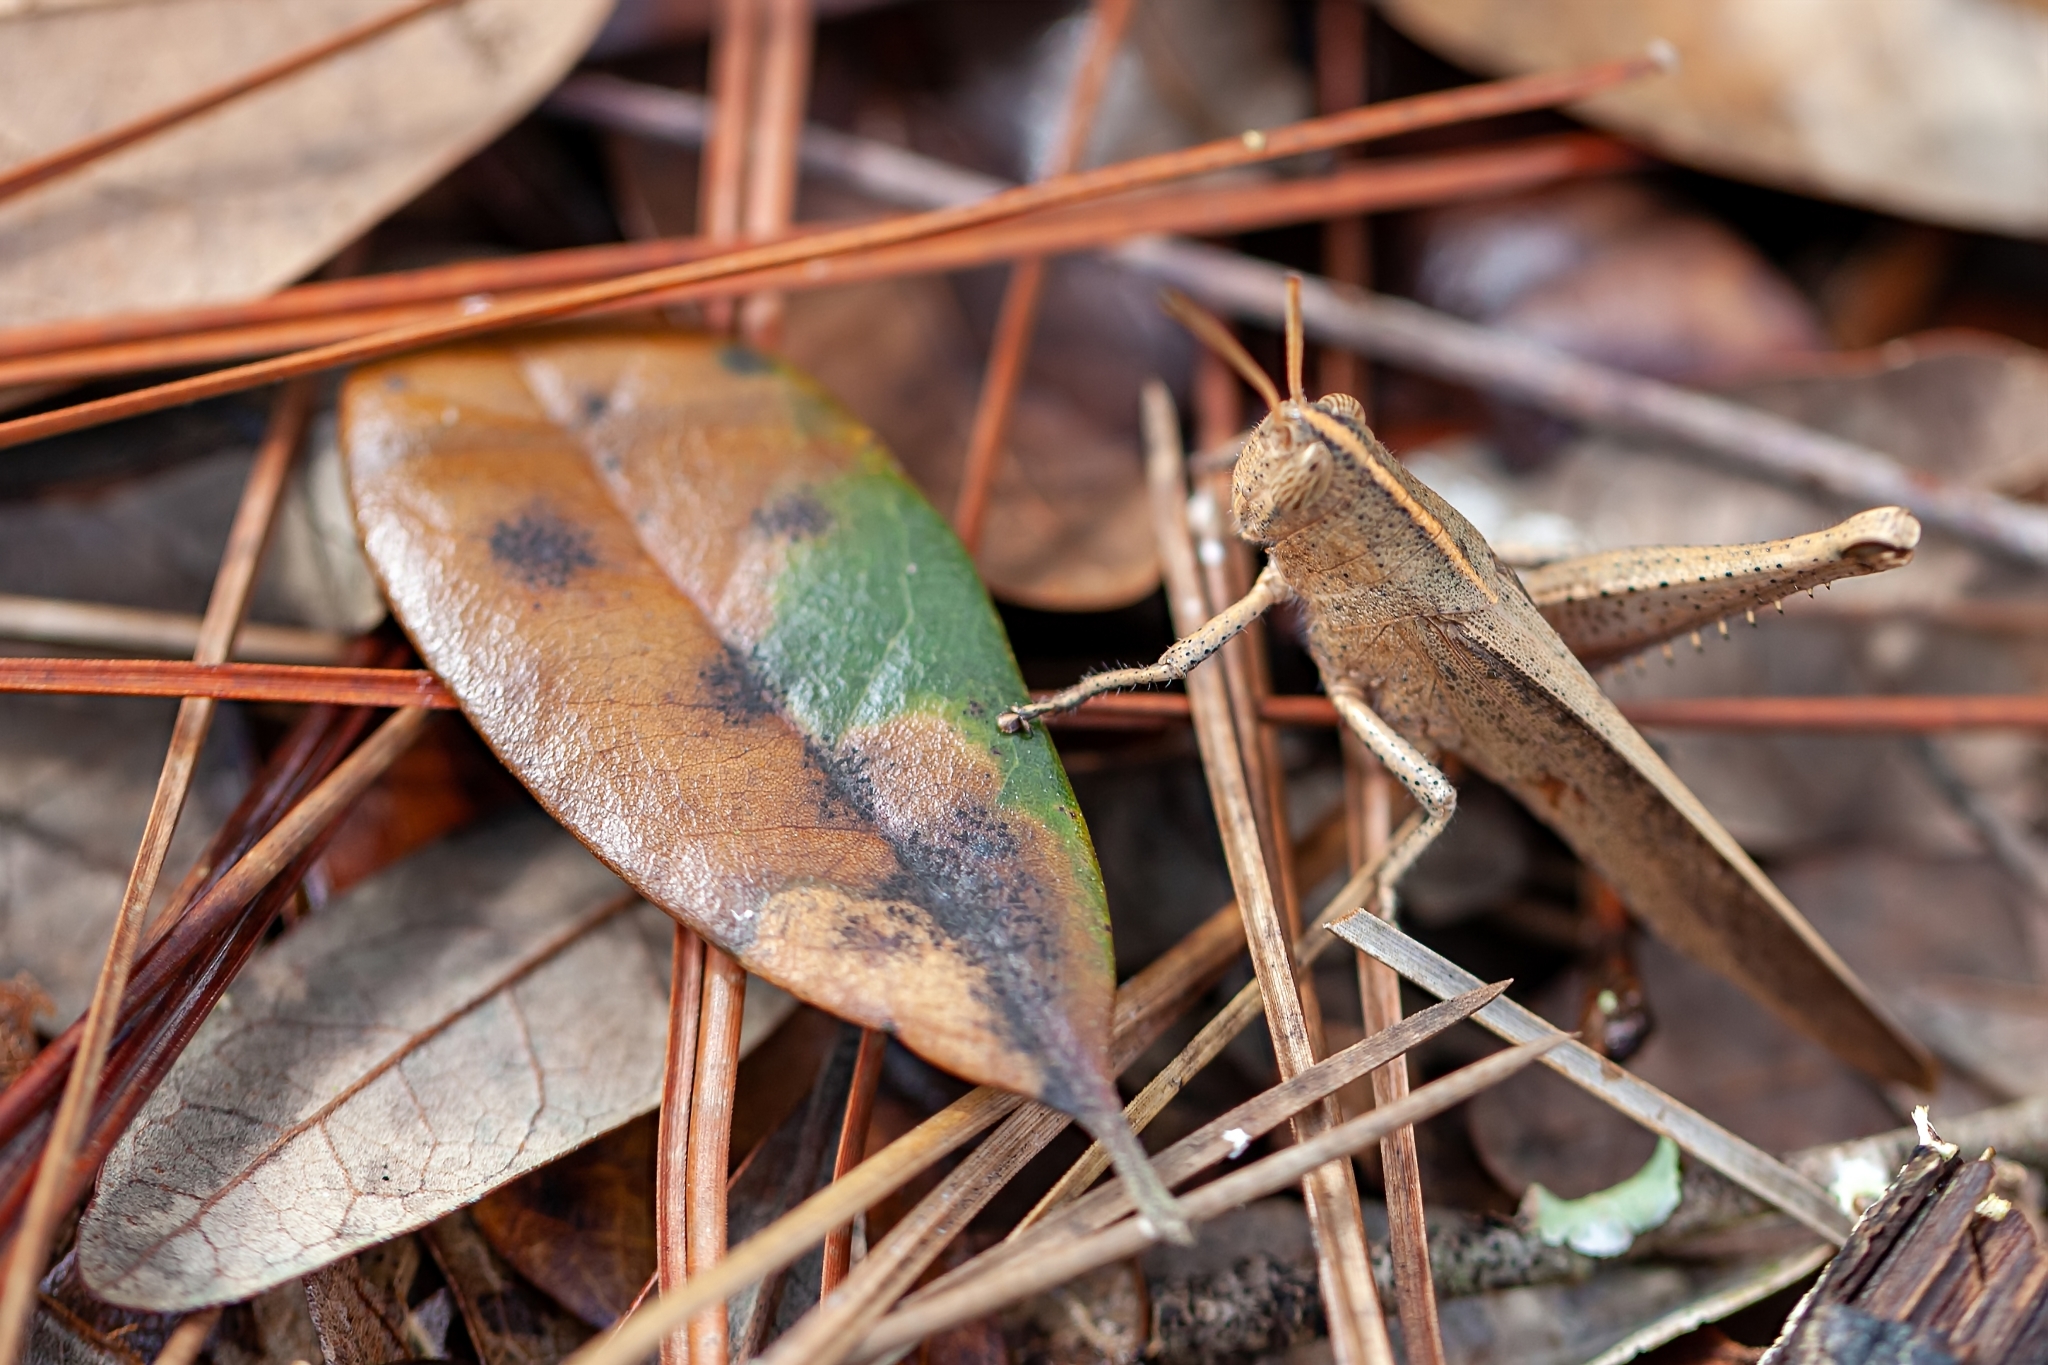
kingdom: Animalia
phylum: Arthropoda
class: Insecta
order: Orthoptera
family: Acrididae
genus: Schistocerca
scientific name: Schistocerca damnifica
